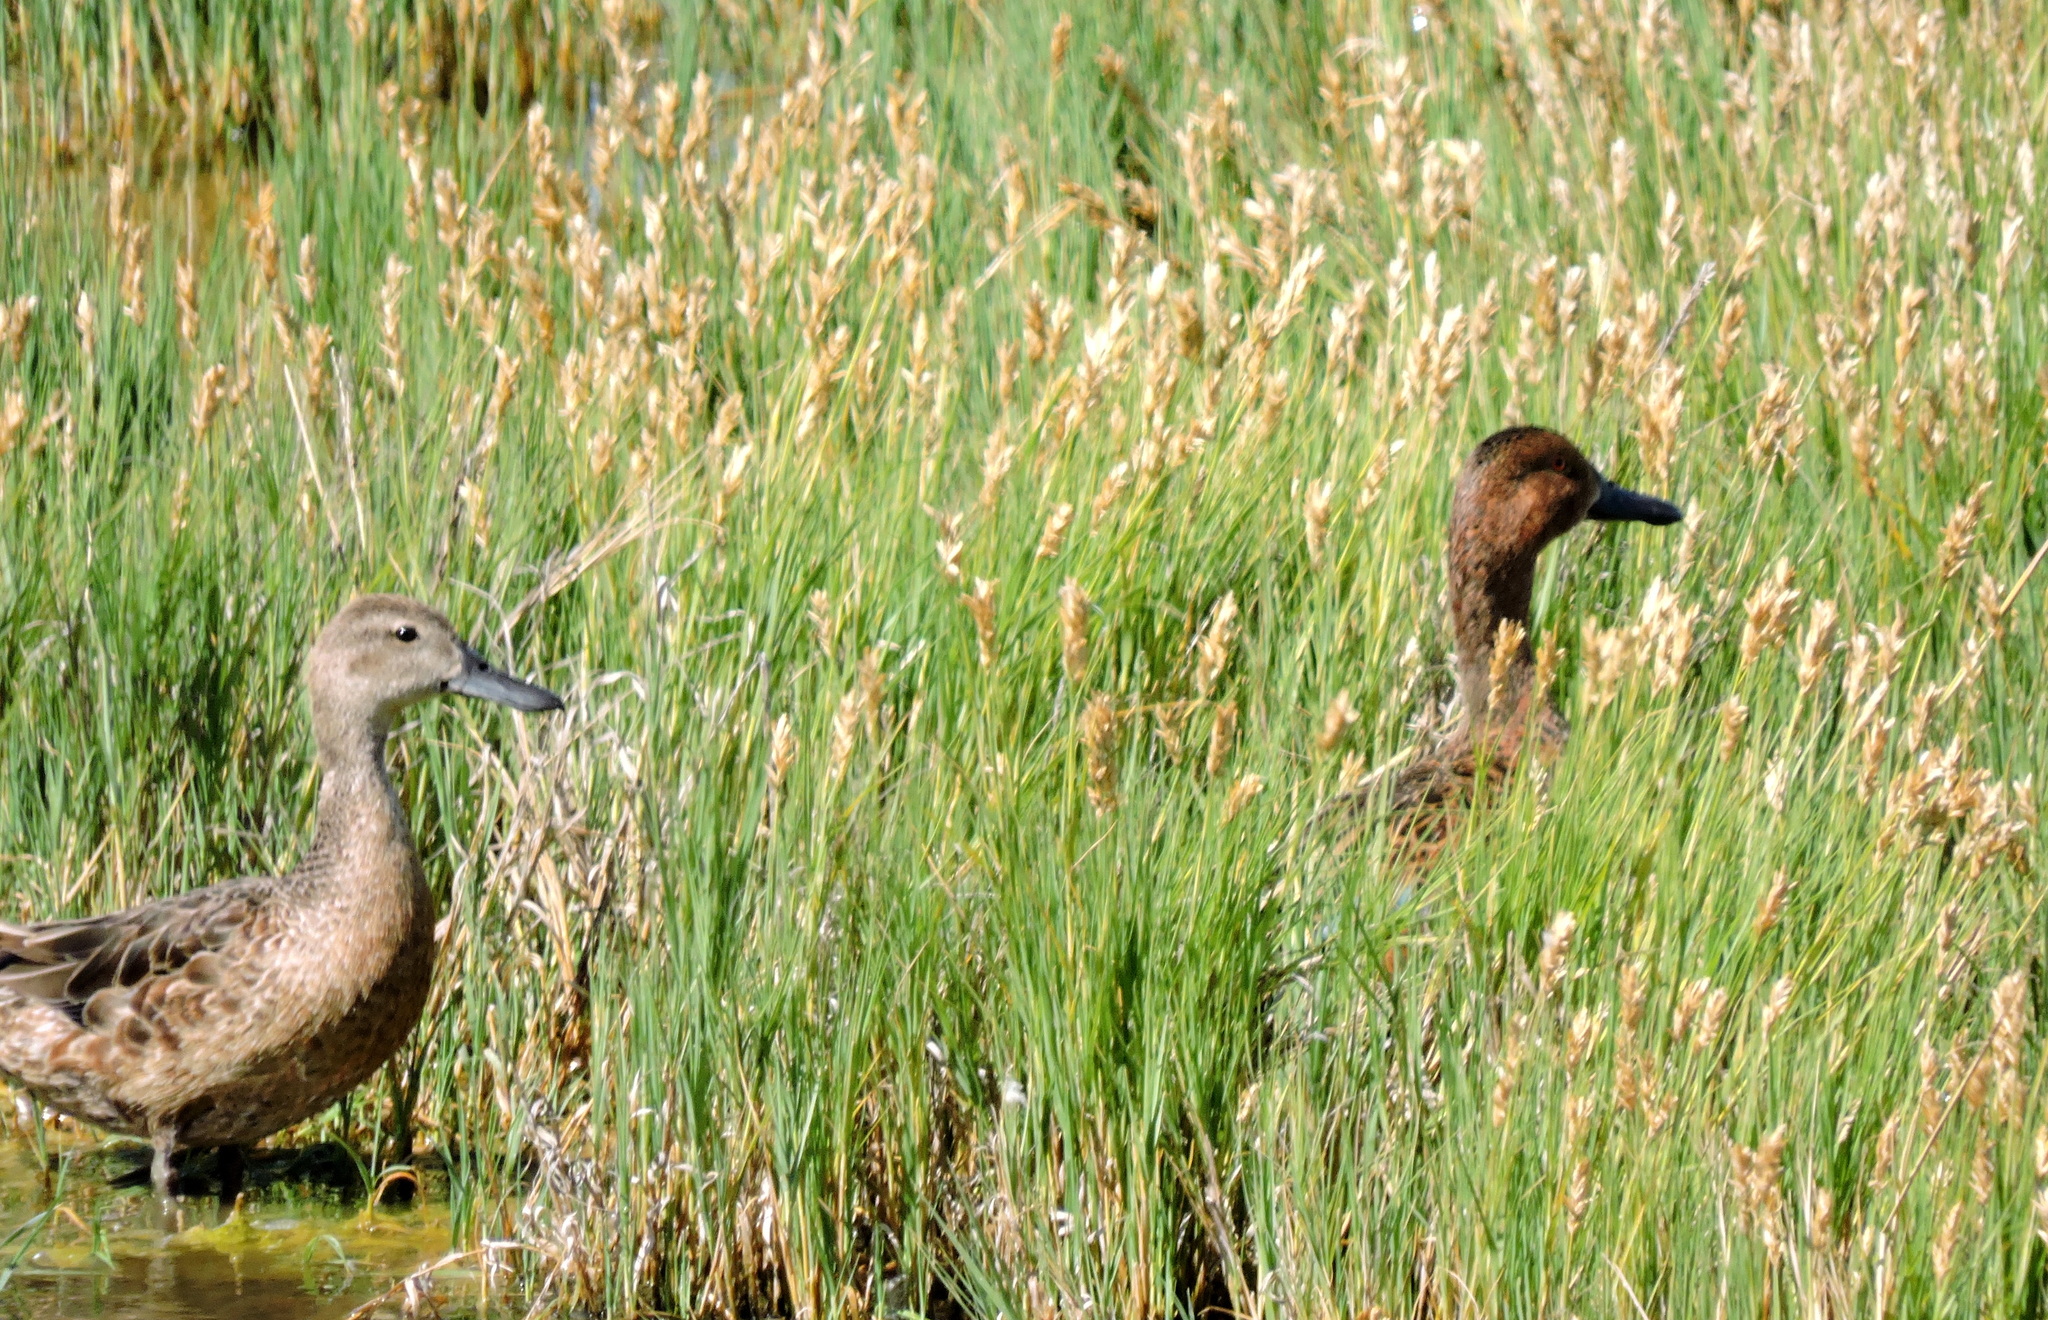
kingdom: Animalia
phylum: Chordata
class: Aves
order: Anseriformes
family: Anatidae
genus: Spatula
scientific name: Spatula cyanoptera
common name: Cinnamon teal
